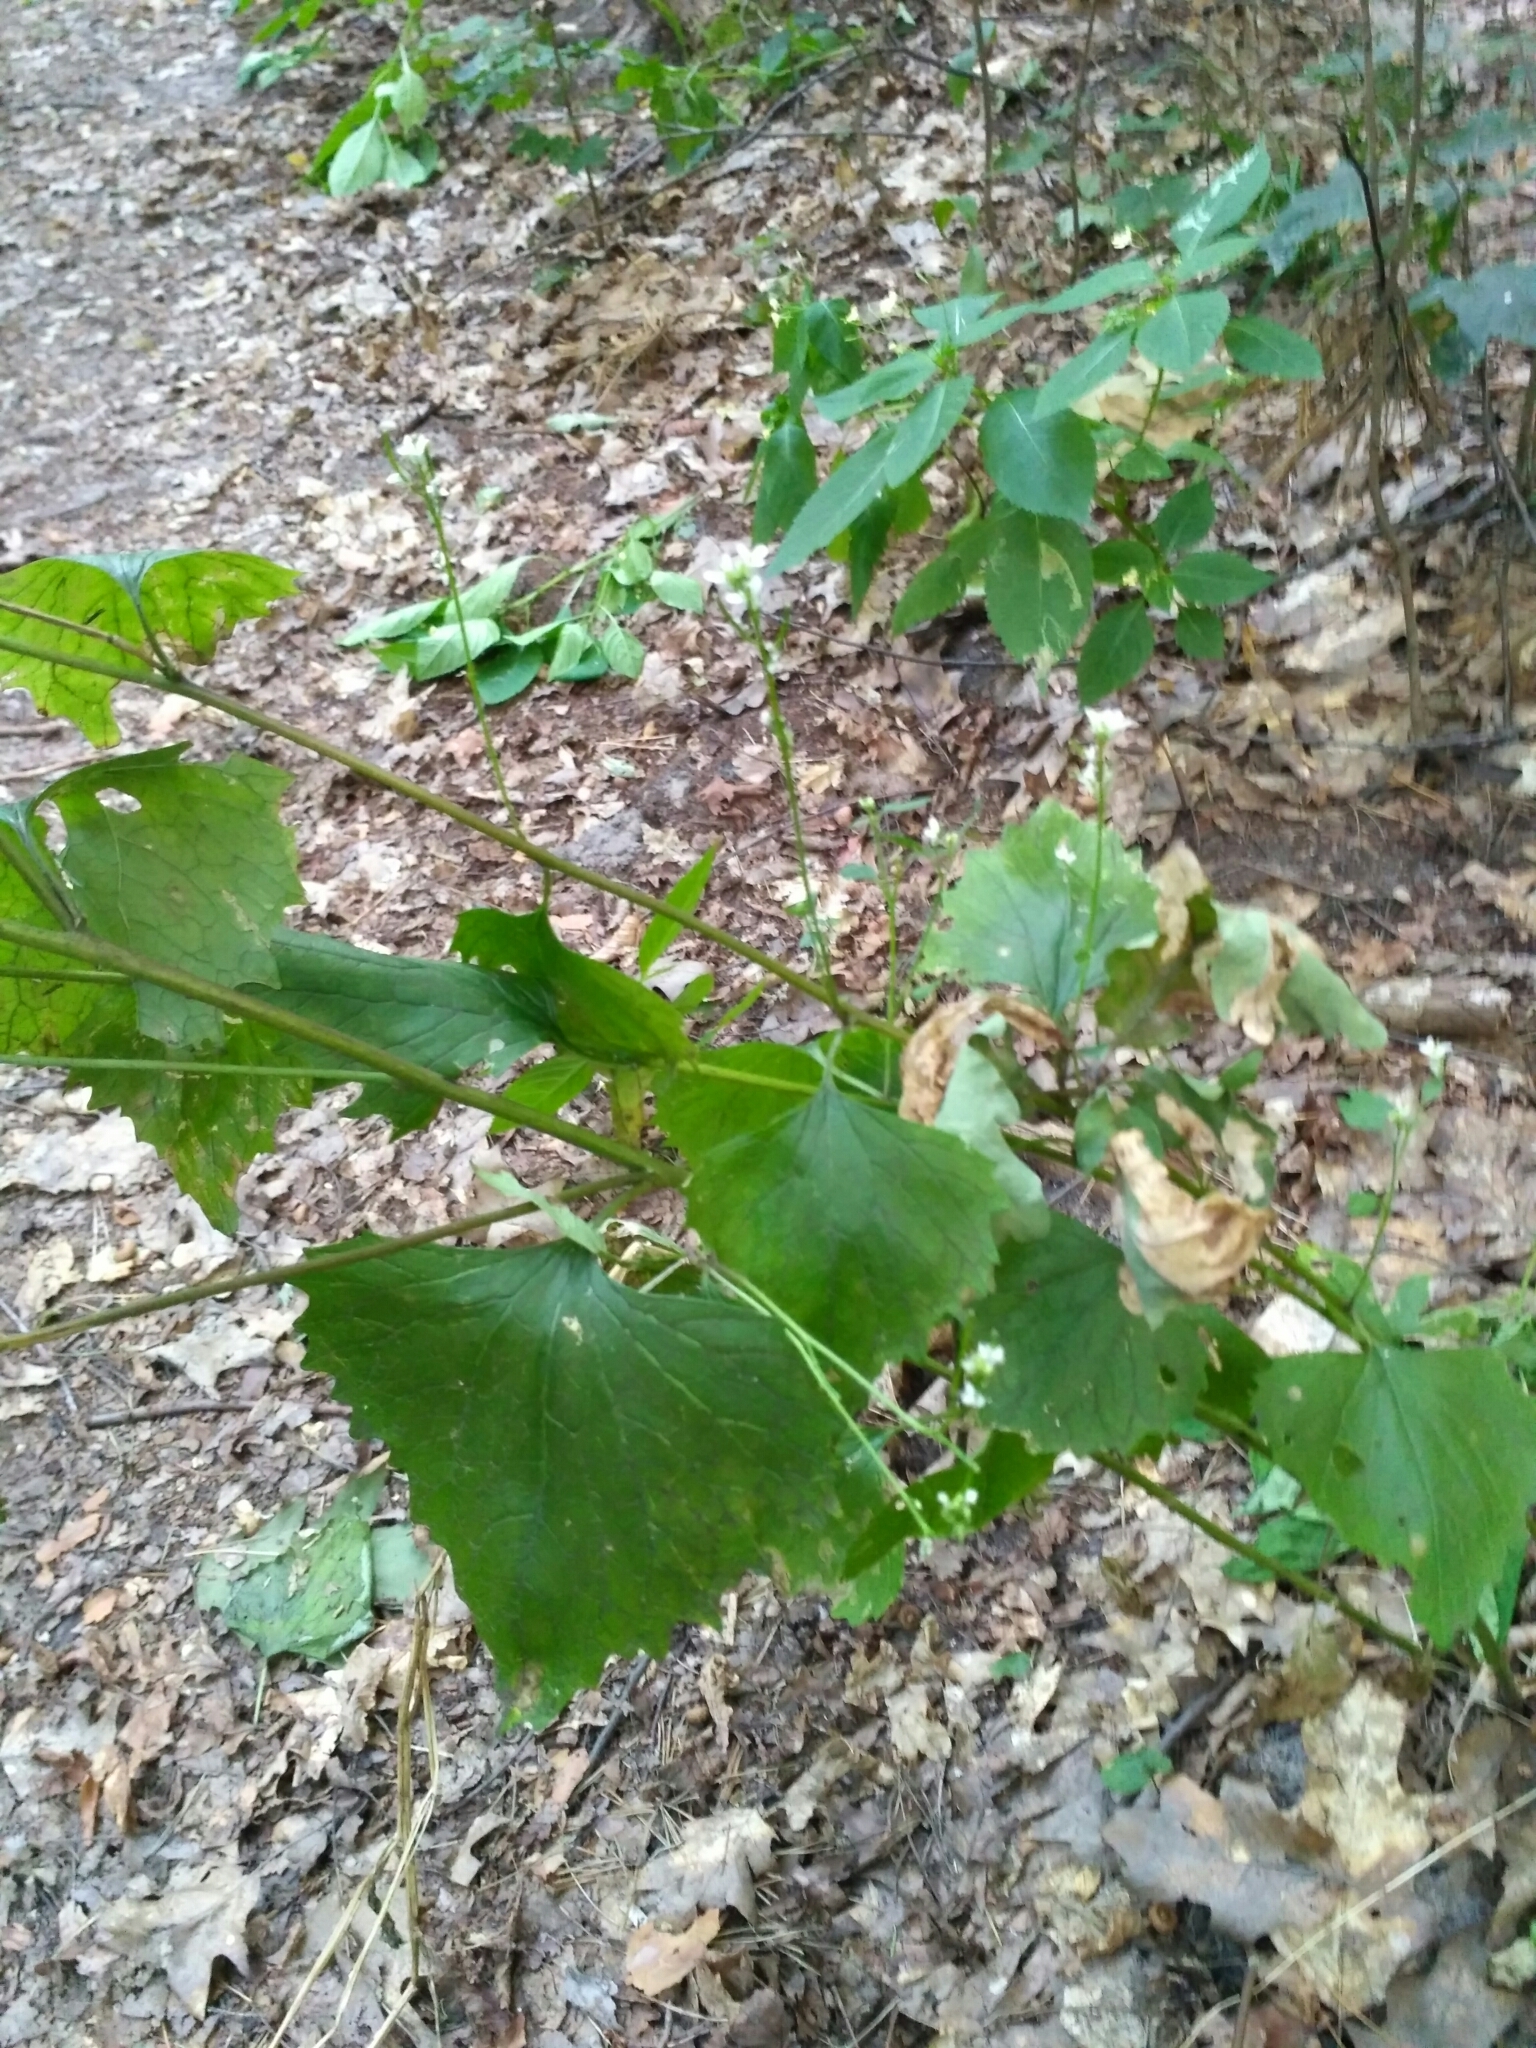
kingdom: Plantae
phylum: Tracheophyta
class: Magnoliopsida
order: Brassicales
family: Brassicaceae
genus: Alliaria
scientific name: Alliaria petiolata
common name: Garlic mustard
